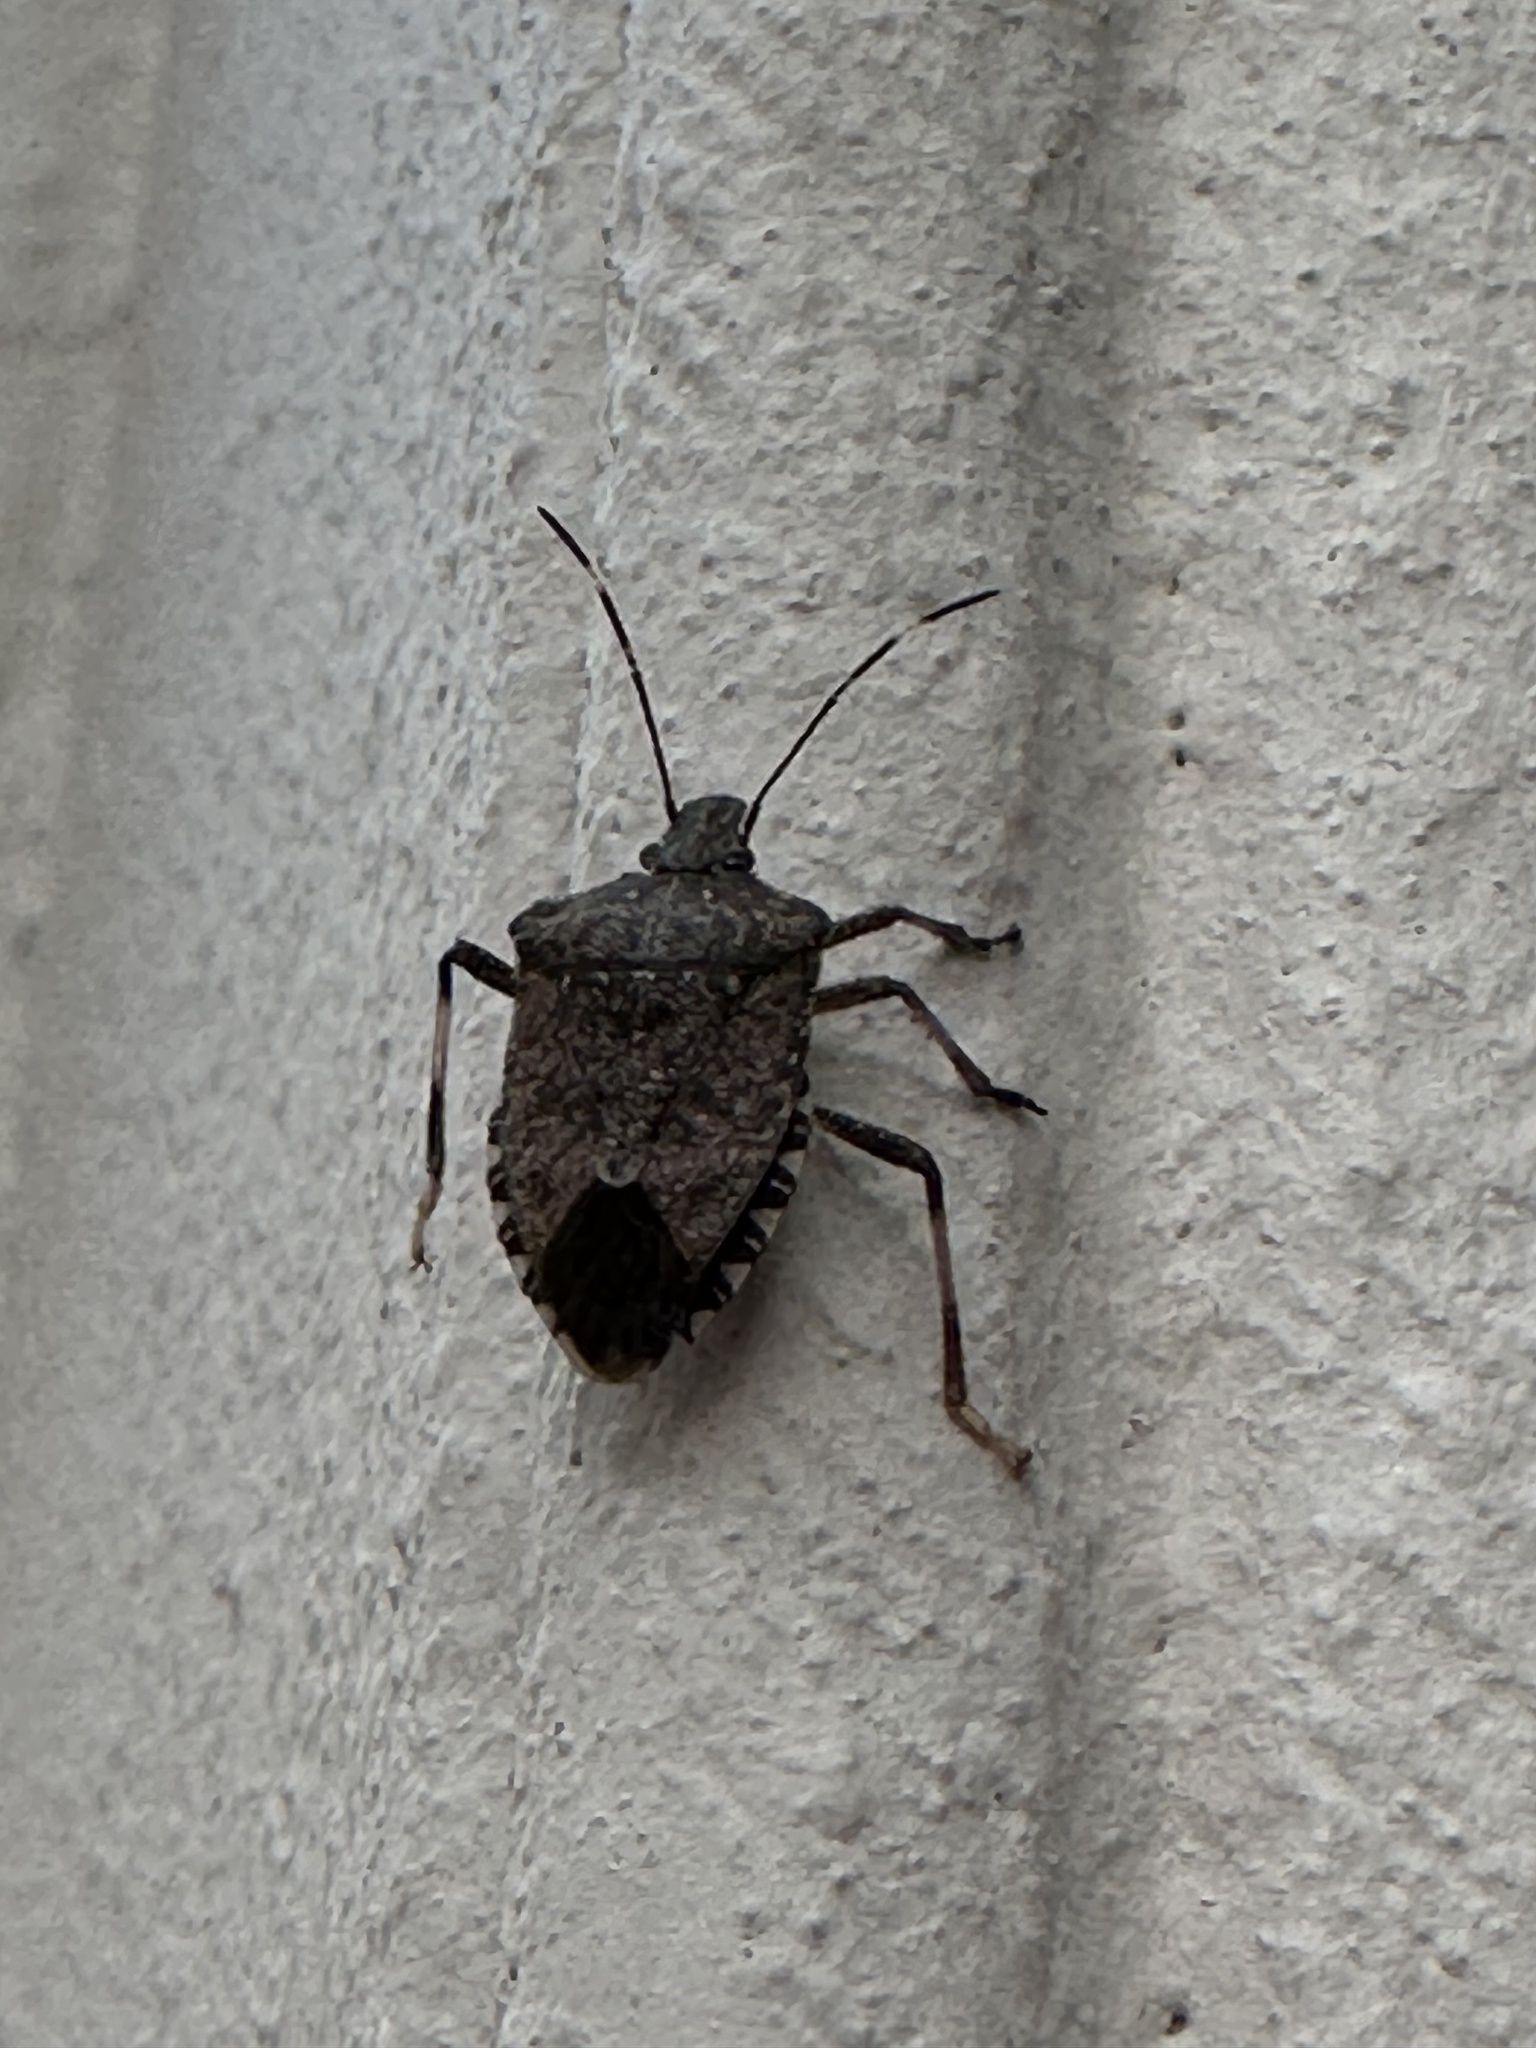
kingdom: Animalia
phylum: Arthropoda
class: Insecta
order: Hemiptera
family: Pentatomidae
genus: Halyomorpha
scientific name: Halyomorpha halys
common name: Brown marmorated stink bug
